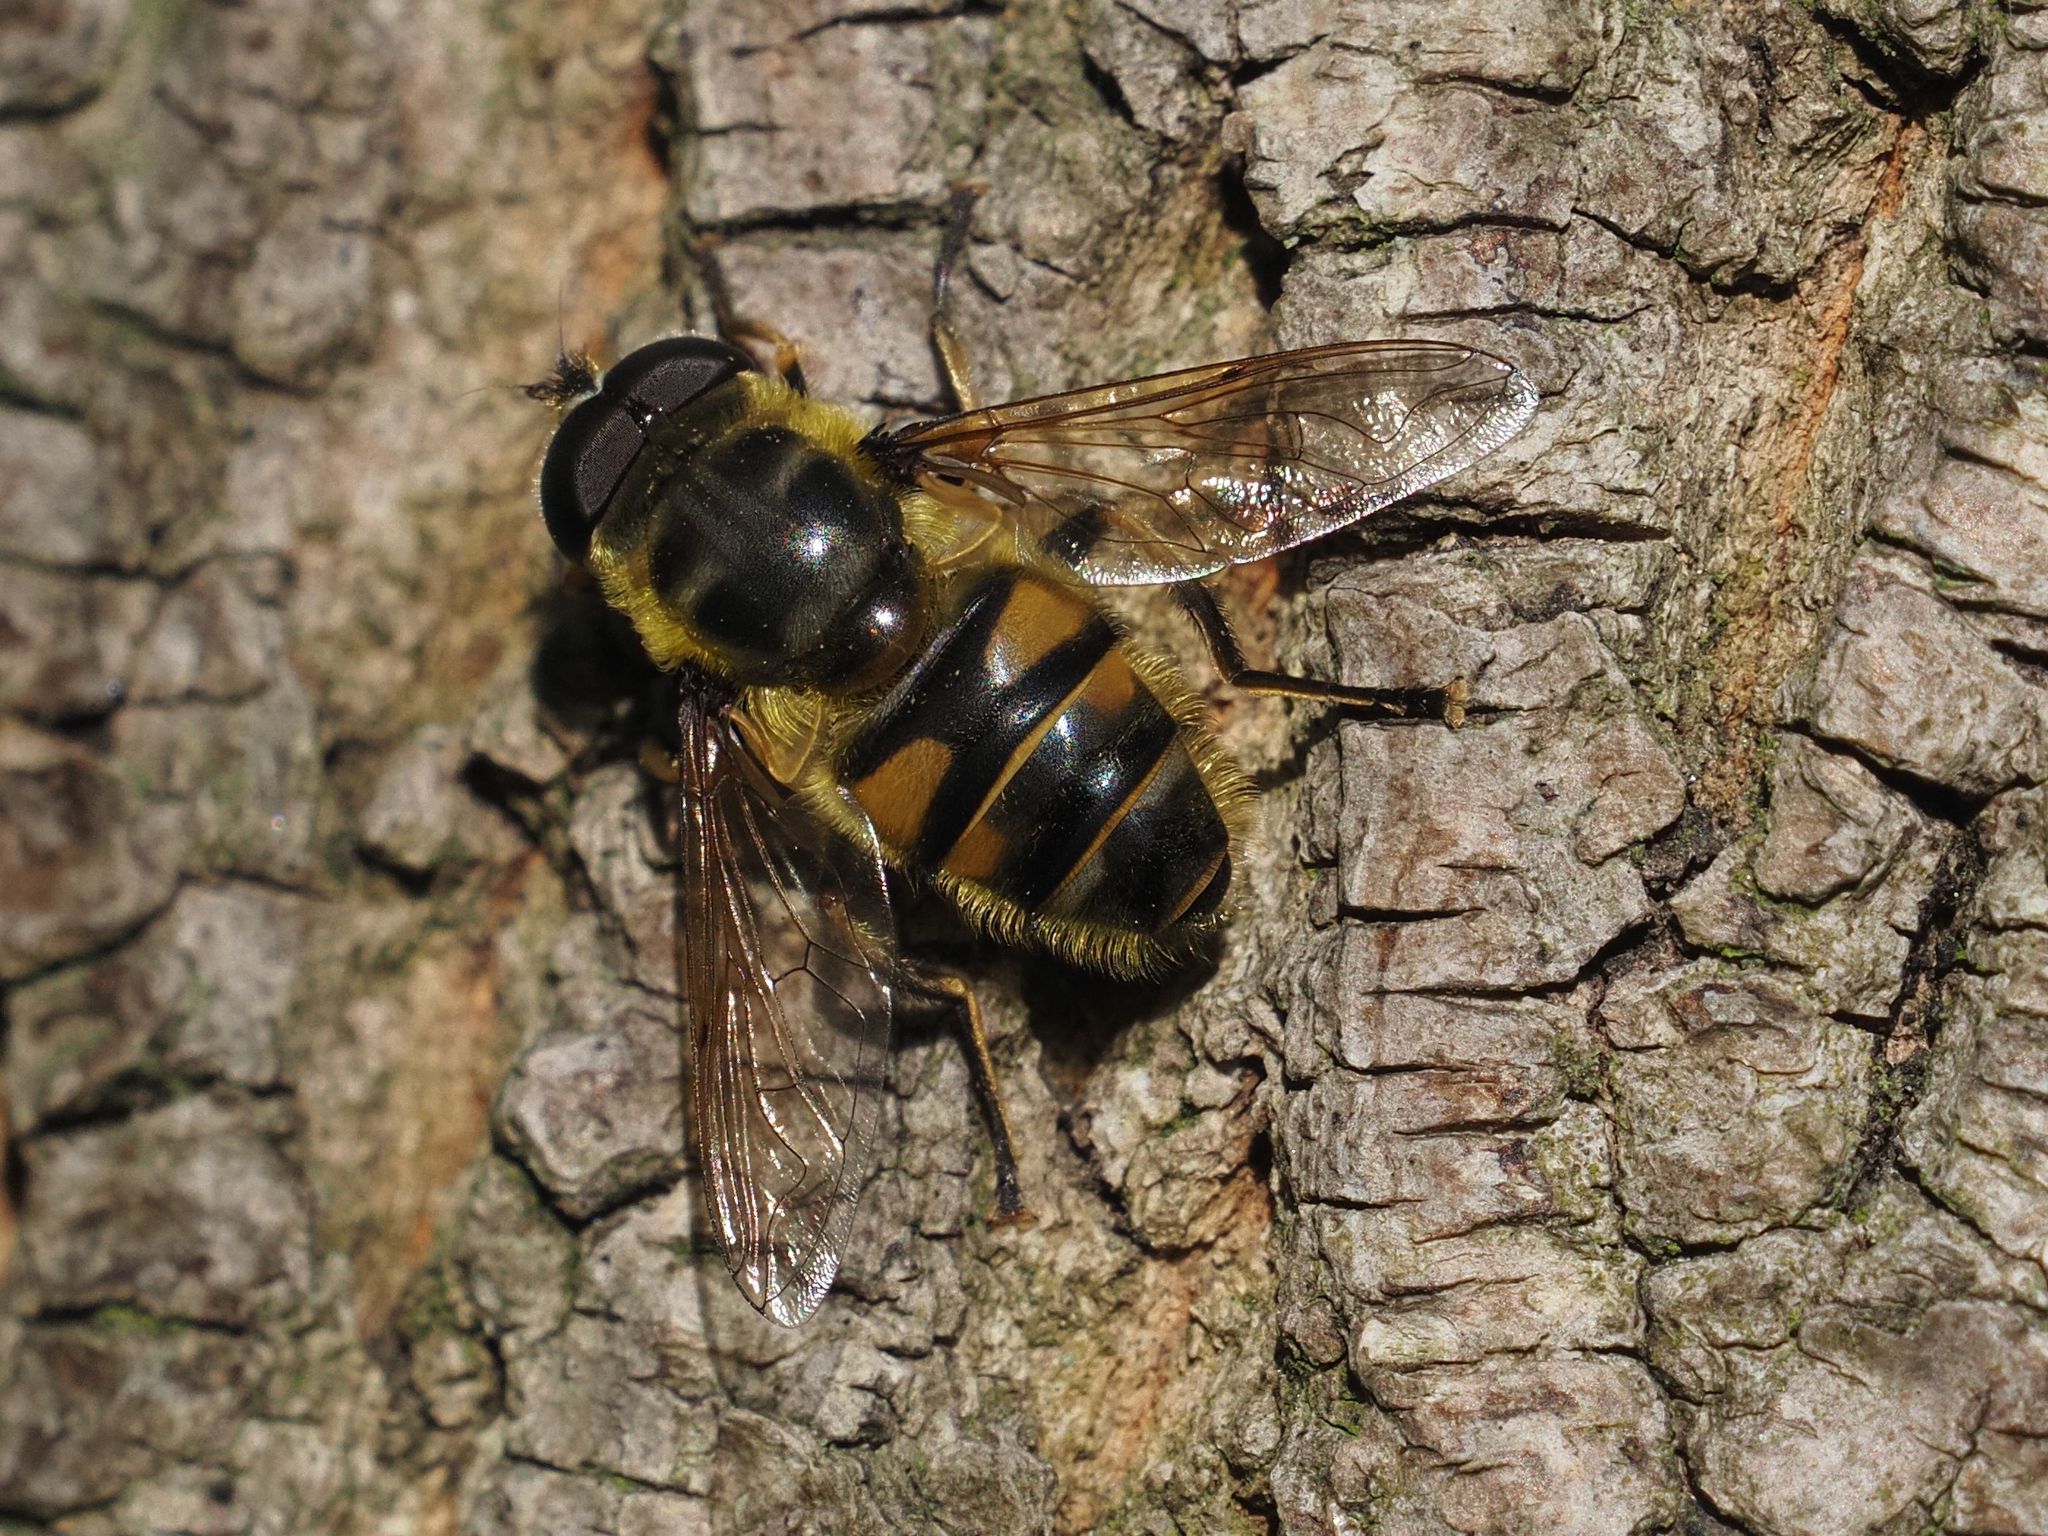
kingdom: Animalia
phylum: Arthropoda
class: Insecta
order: Diptera
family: Syrphidae
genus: Myathropa
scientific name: Myathropa florea
